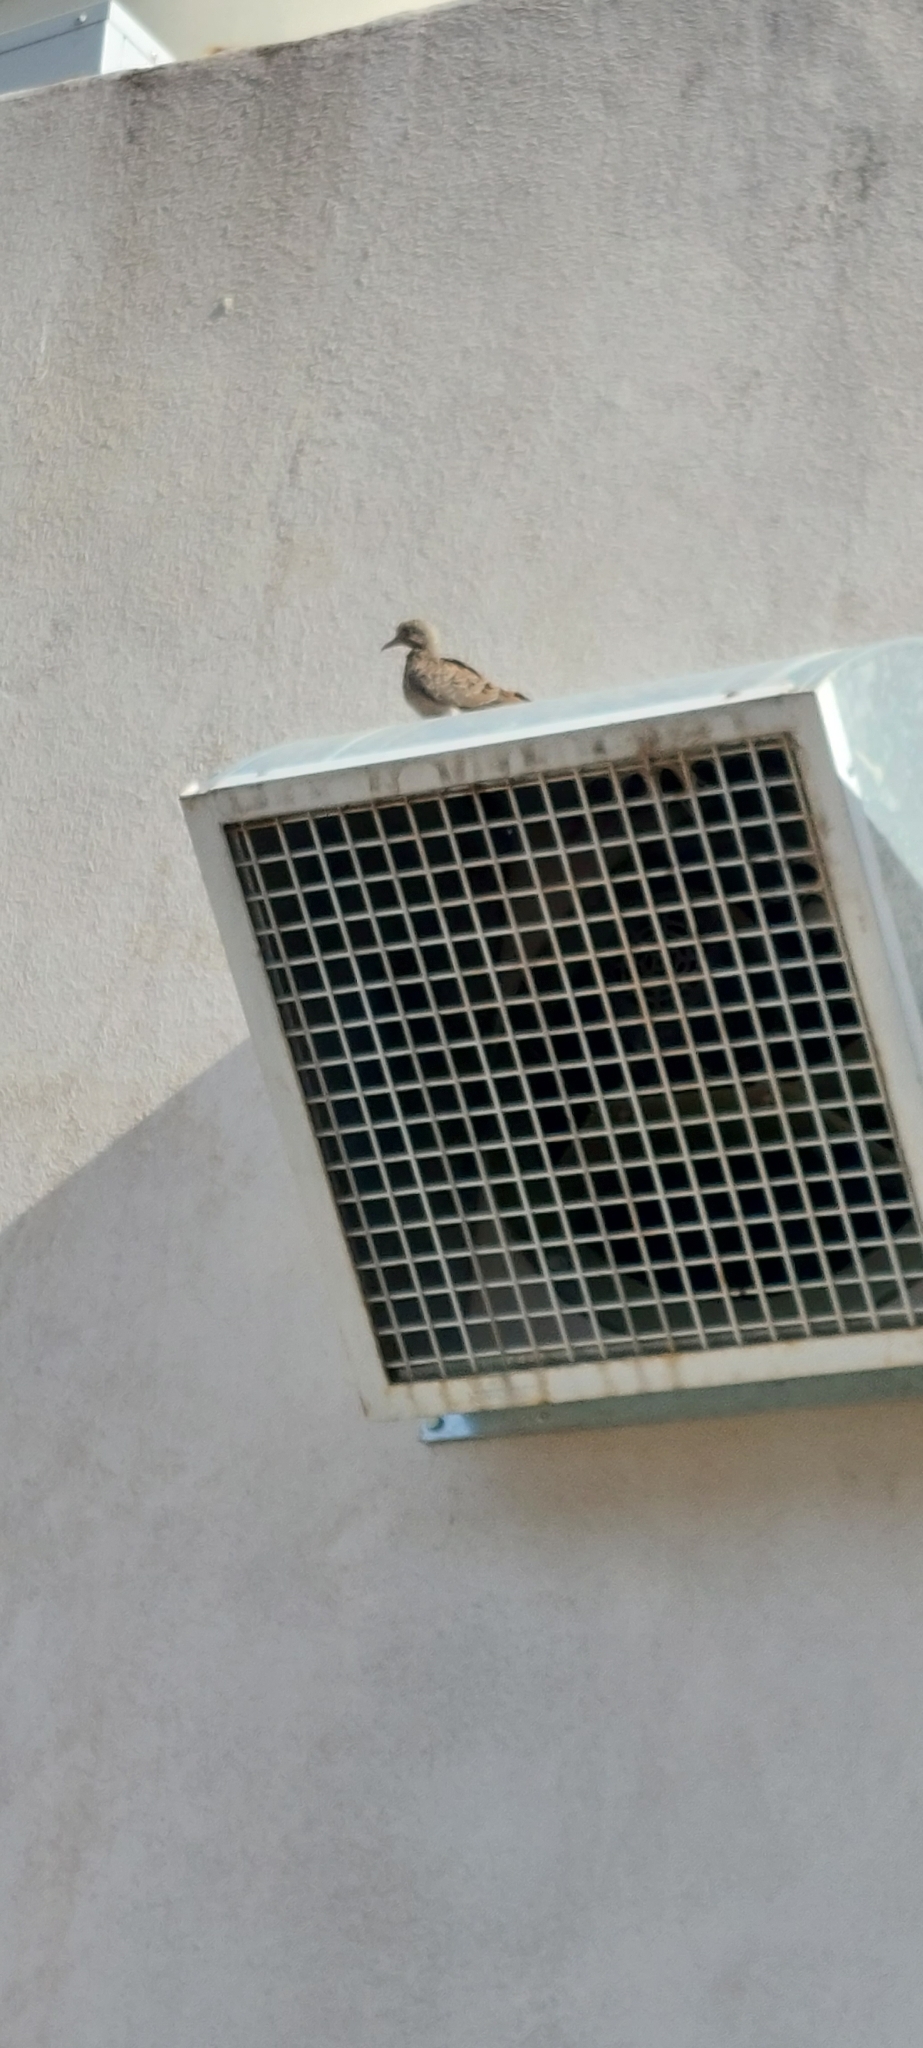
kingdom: Animalia
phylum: Chordata
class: Aves
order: Columbiformes
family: Columbidae
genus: Zenaida
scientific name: Zenaida auriculata
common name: Eared dove
